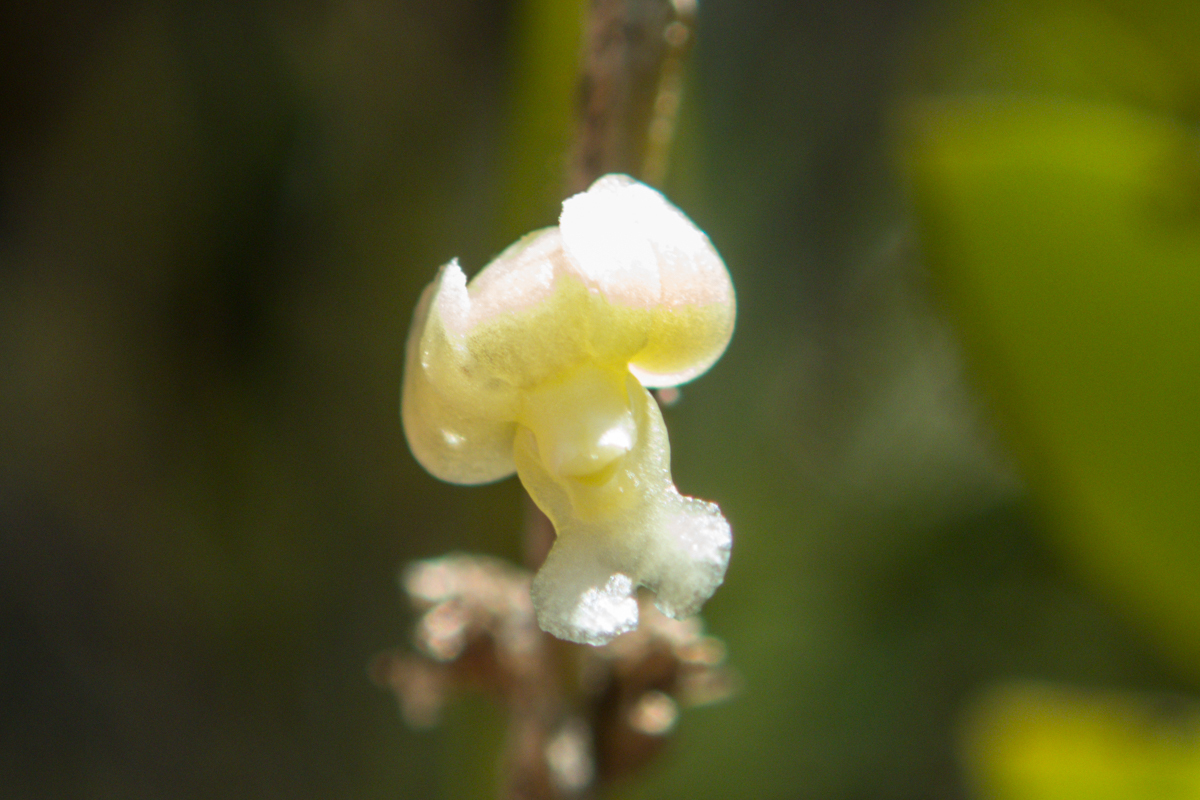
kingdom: Plantae
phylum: Tracheophyta
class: Liliopsida
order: Asparagales
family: Orchidaceae
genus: Dendrobium
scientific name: Dendrobium aloifolium
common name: Aloe-like dendrobium
